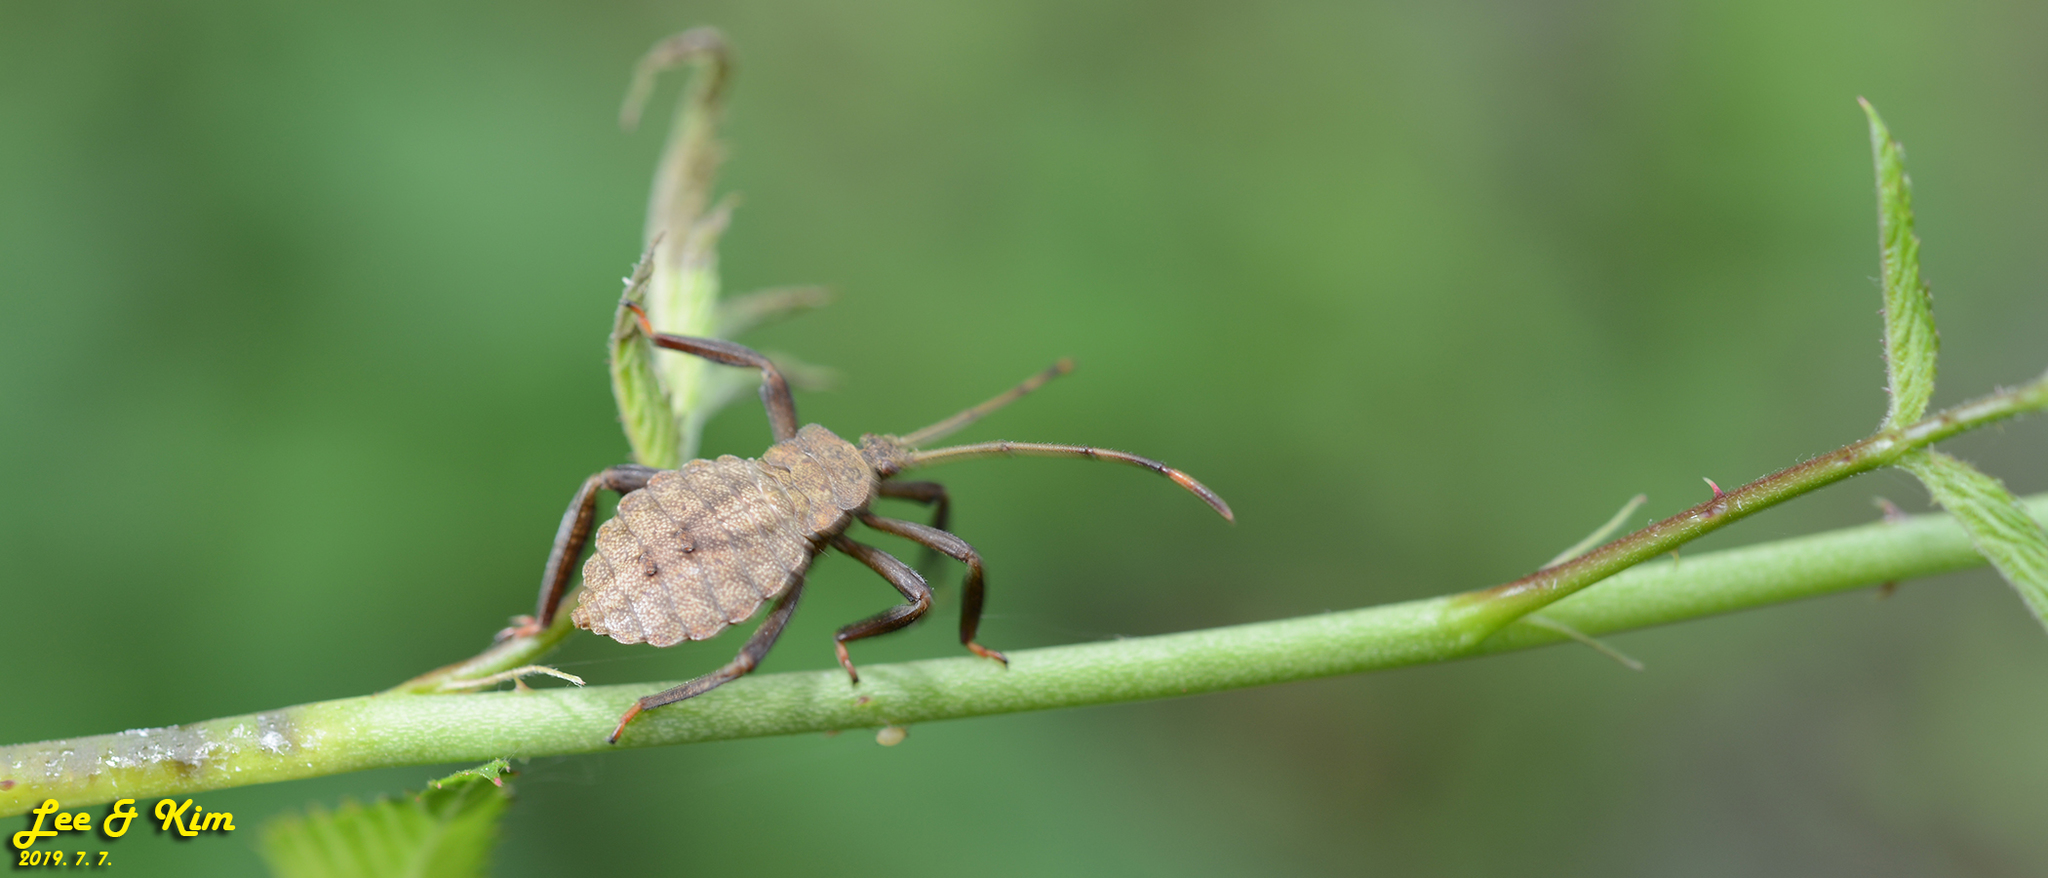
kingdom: Animalia
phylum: Arthropoda
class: Insecta
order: Hemiptera
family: Coreidae
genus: Molipteryx
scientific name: Molipteryx fuliginosa
